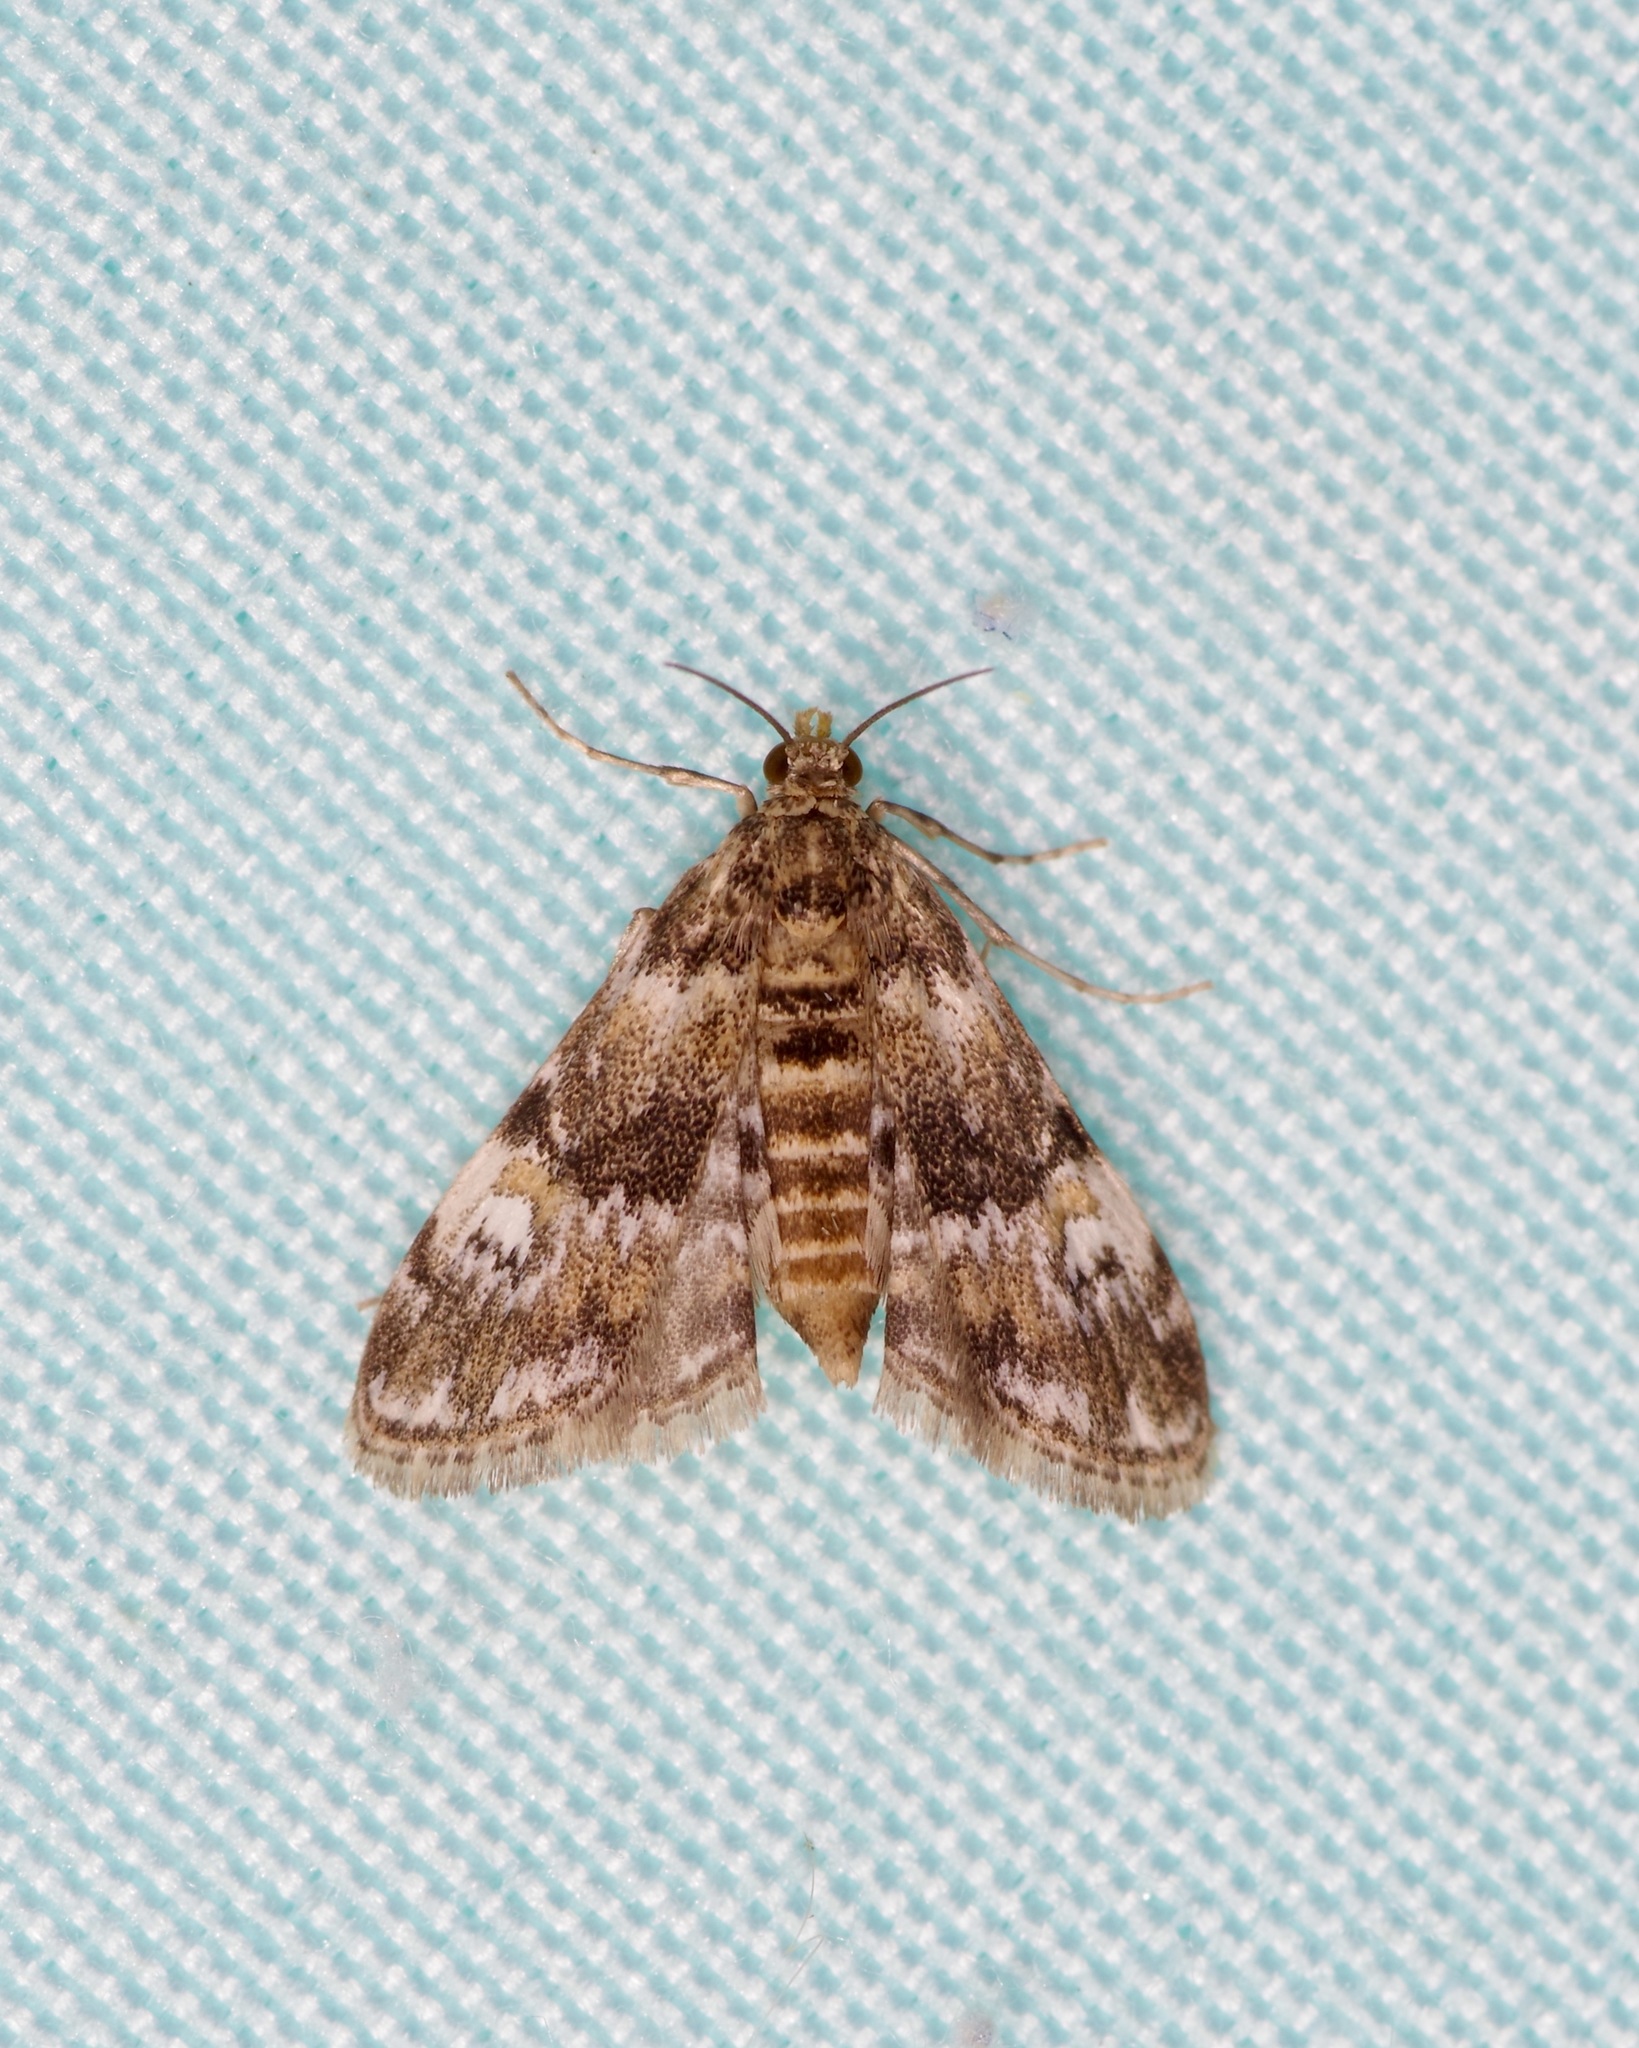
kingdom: Animalia
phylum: Arthropoda
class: Insecta
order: Lepidoptera
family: Crambidae
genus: Elophila
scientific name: Elophila obliteralis
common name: Waterlily leafcutter moth
